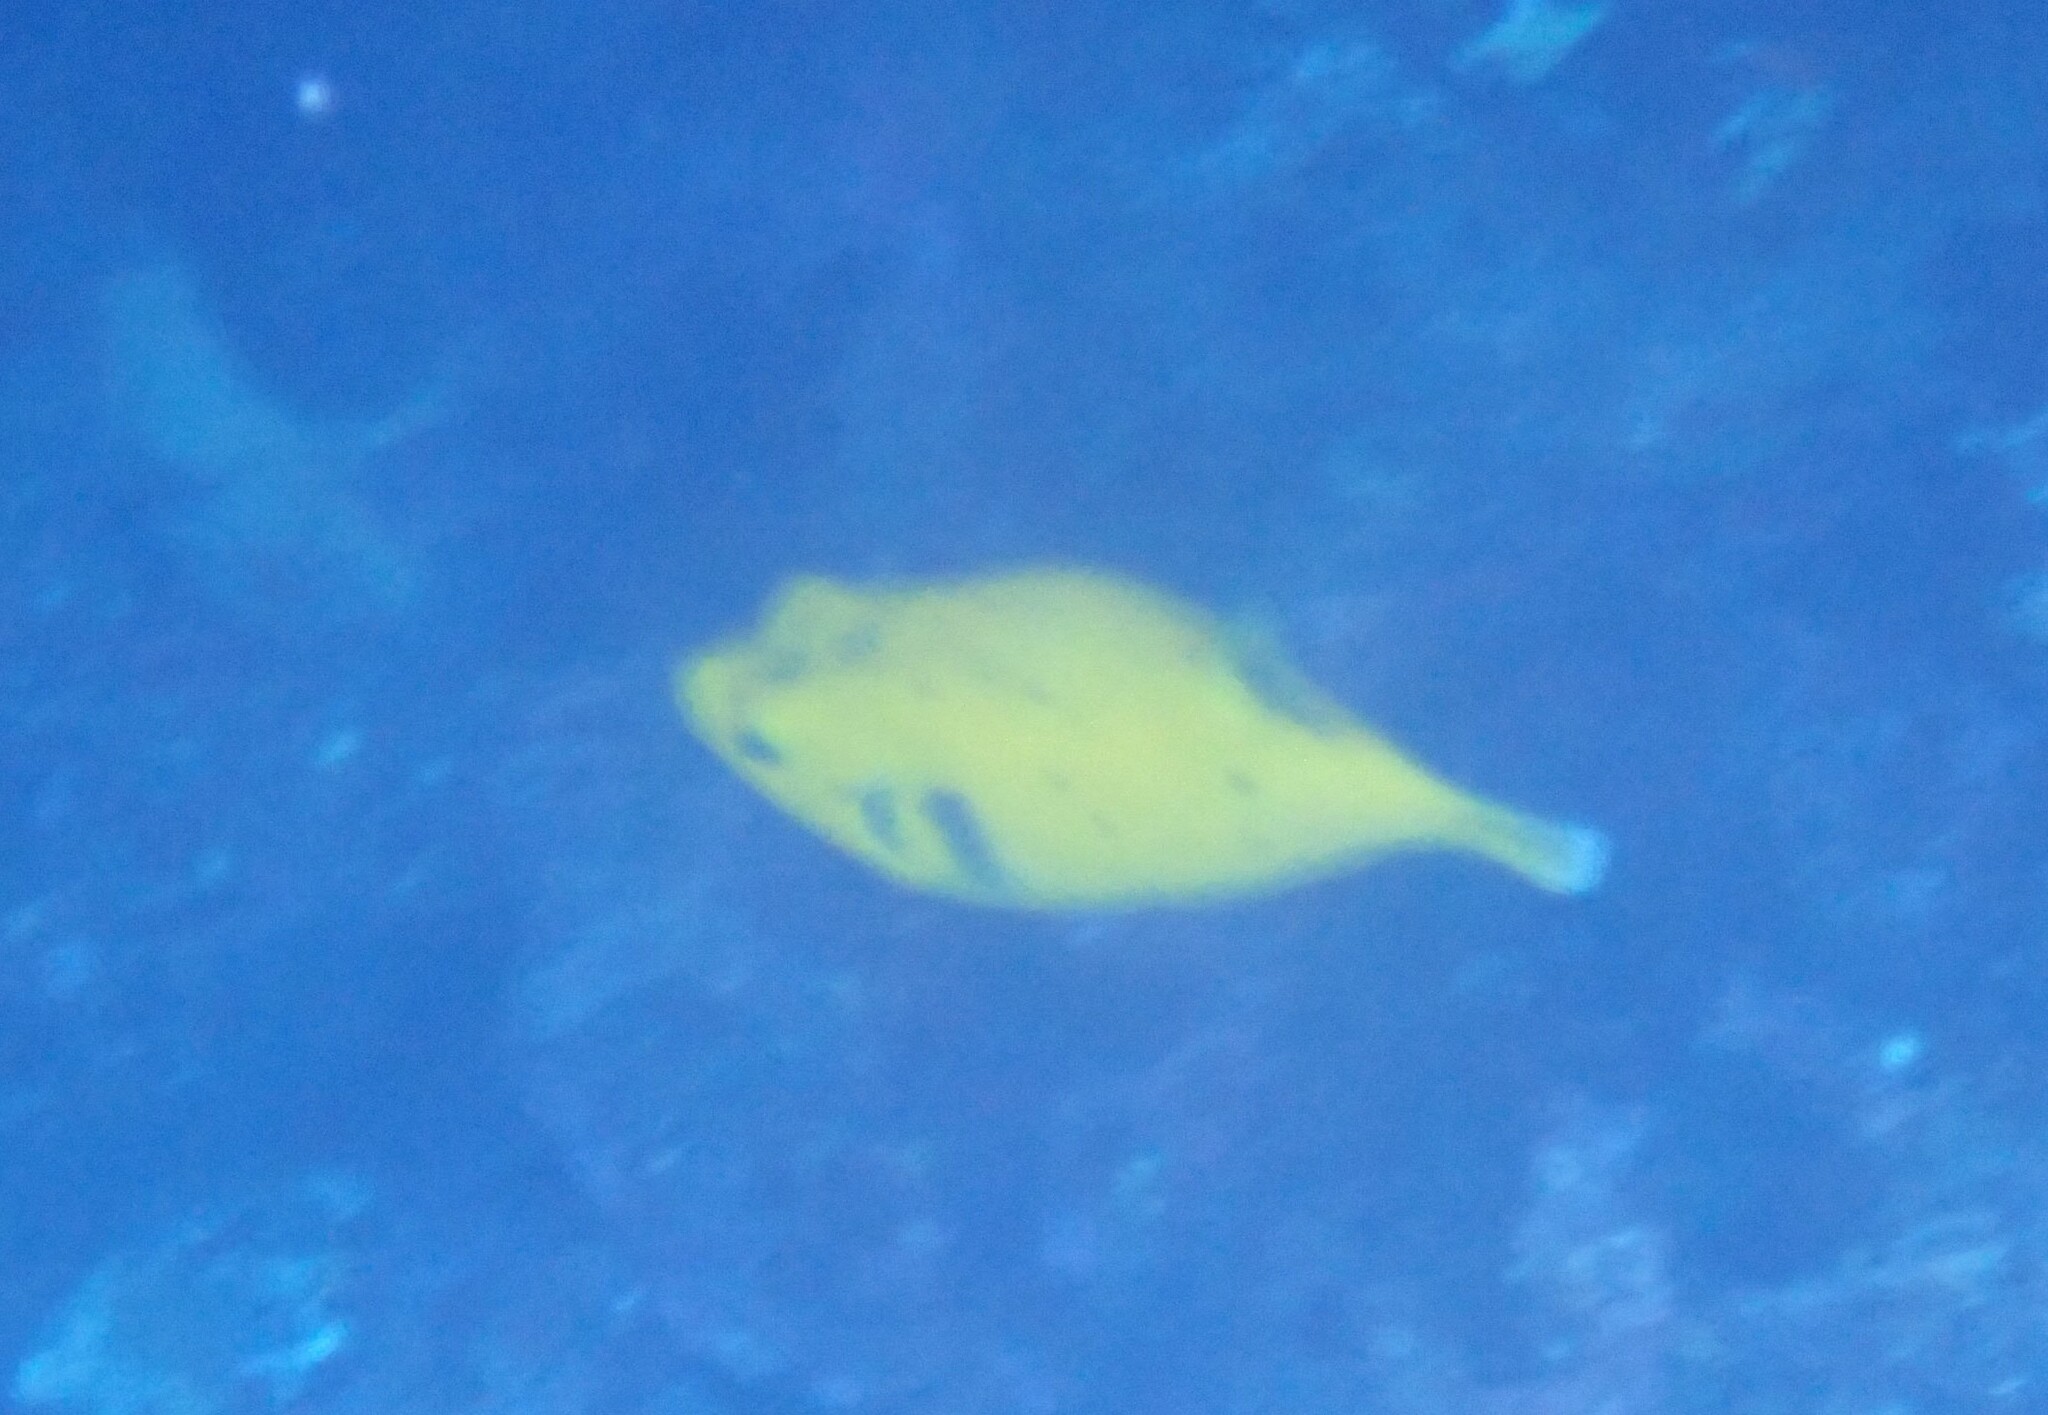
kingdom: Animalia
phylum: Chordata
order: Tetraodontiformes
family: Tetraodontidae
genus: Arothron
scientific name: Arothron meleagris
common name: Guinea-fowl pufferfish
